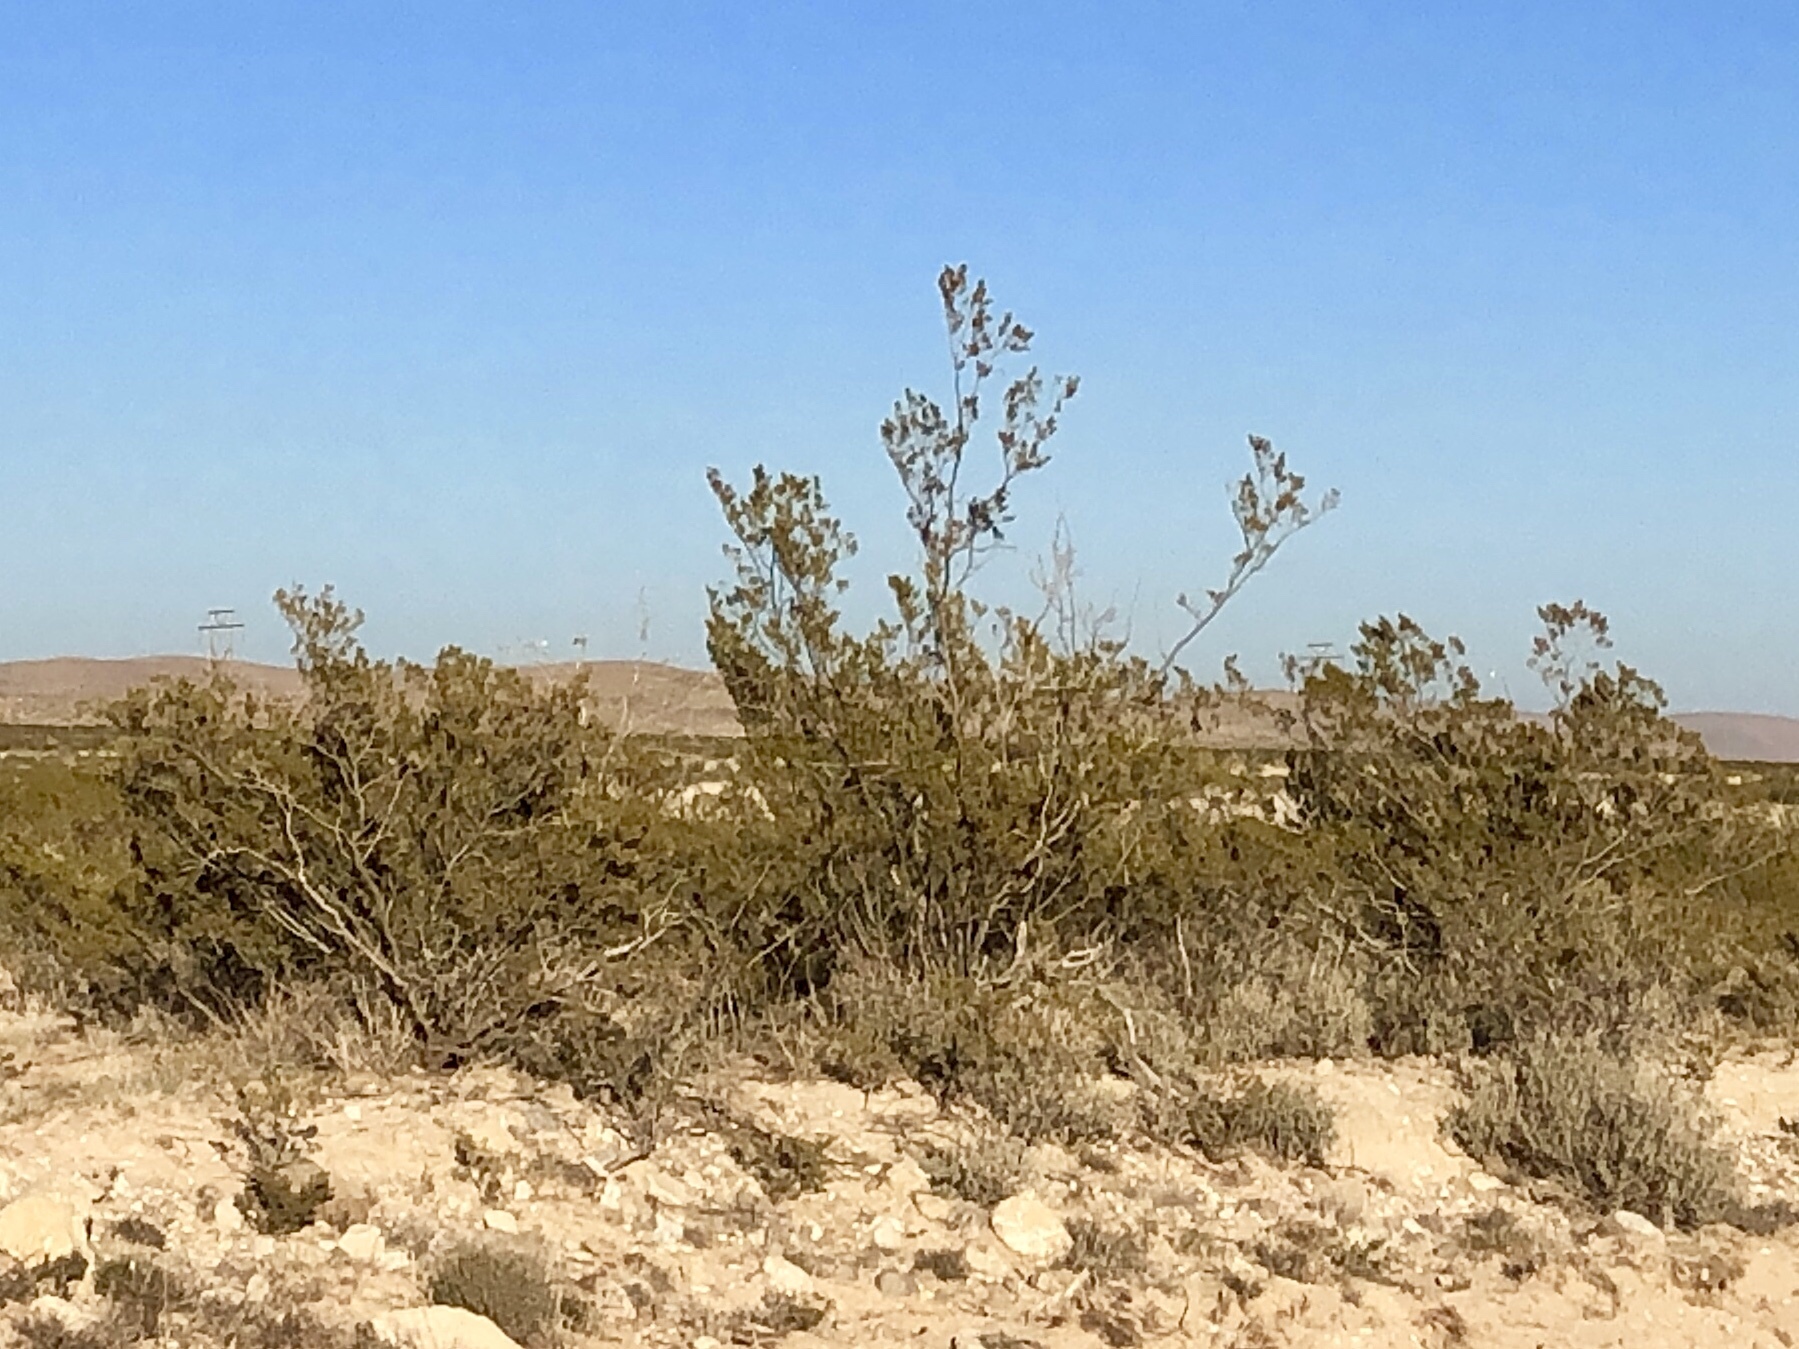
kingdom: Plantae
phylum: Tracheophyta
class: Magnoliopsida
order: Zygophyllales
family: Zygophyllaceae
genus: Larrea
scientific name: Larrea tridentata
